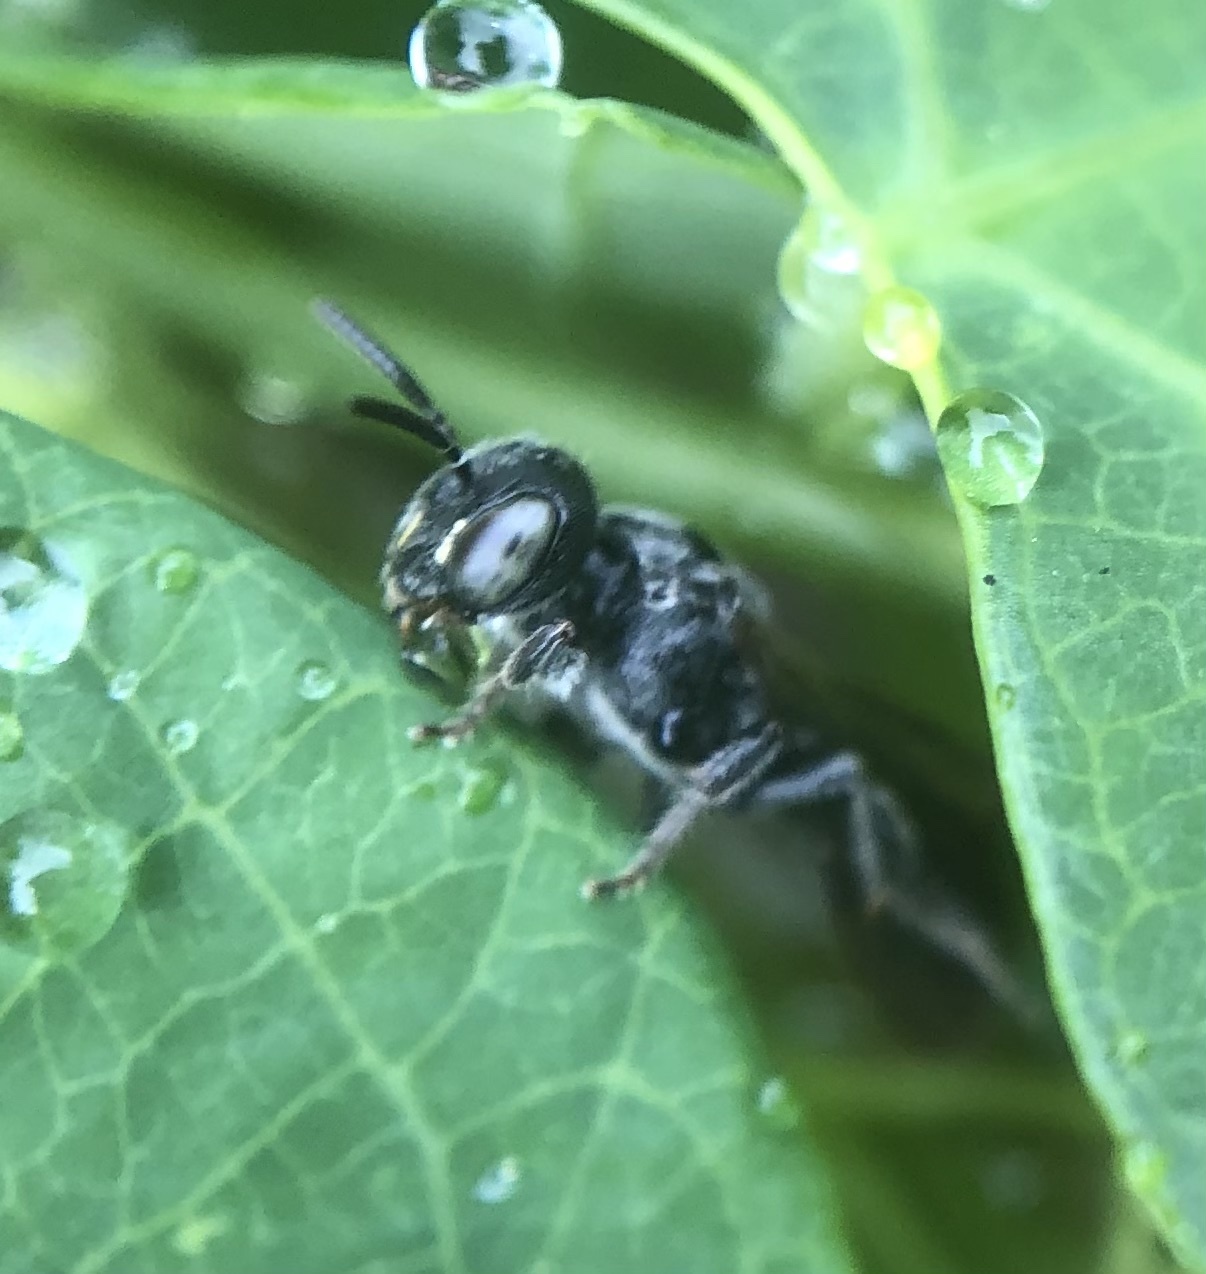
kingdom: Animalia
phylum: Arthropoda
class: Insecta
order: Hymenoptera
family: Andrenidae
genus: Protandrena
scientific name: Protandrena
